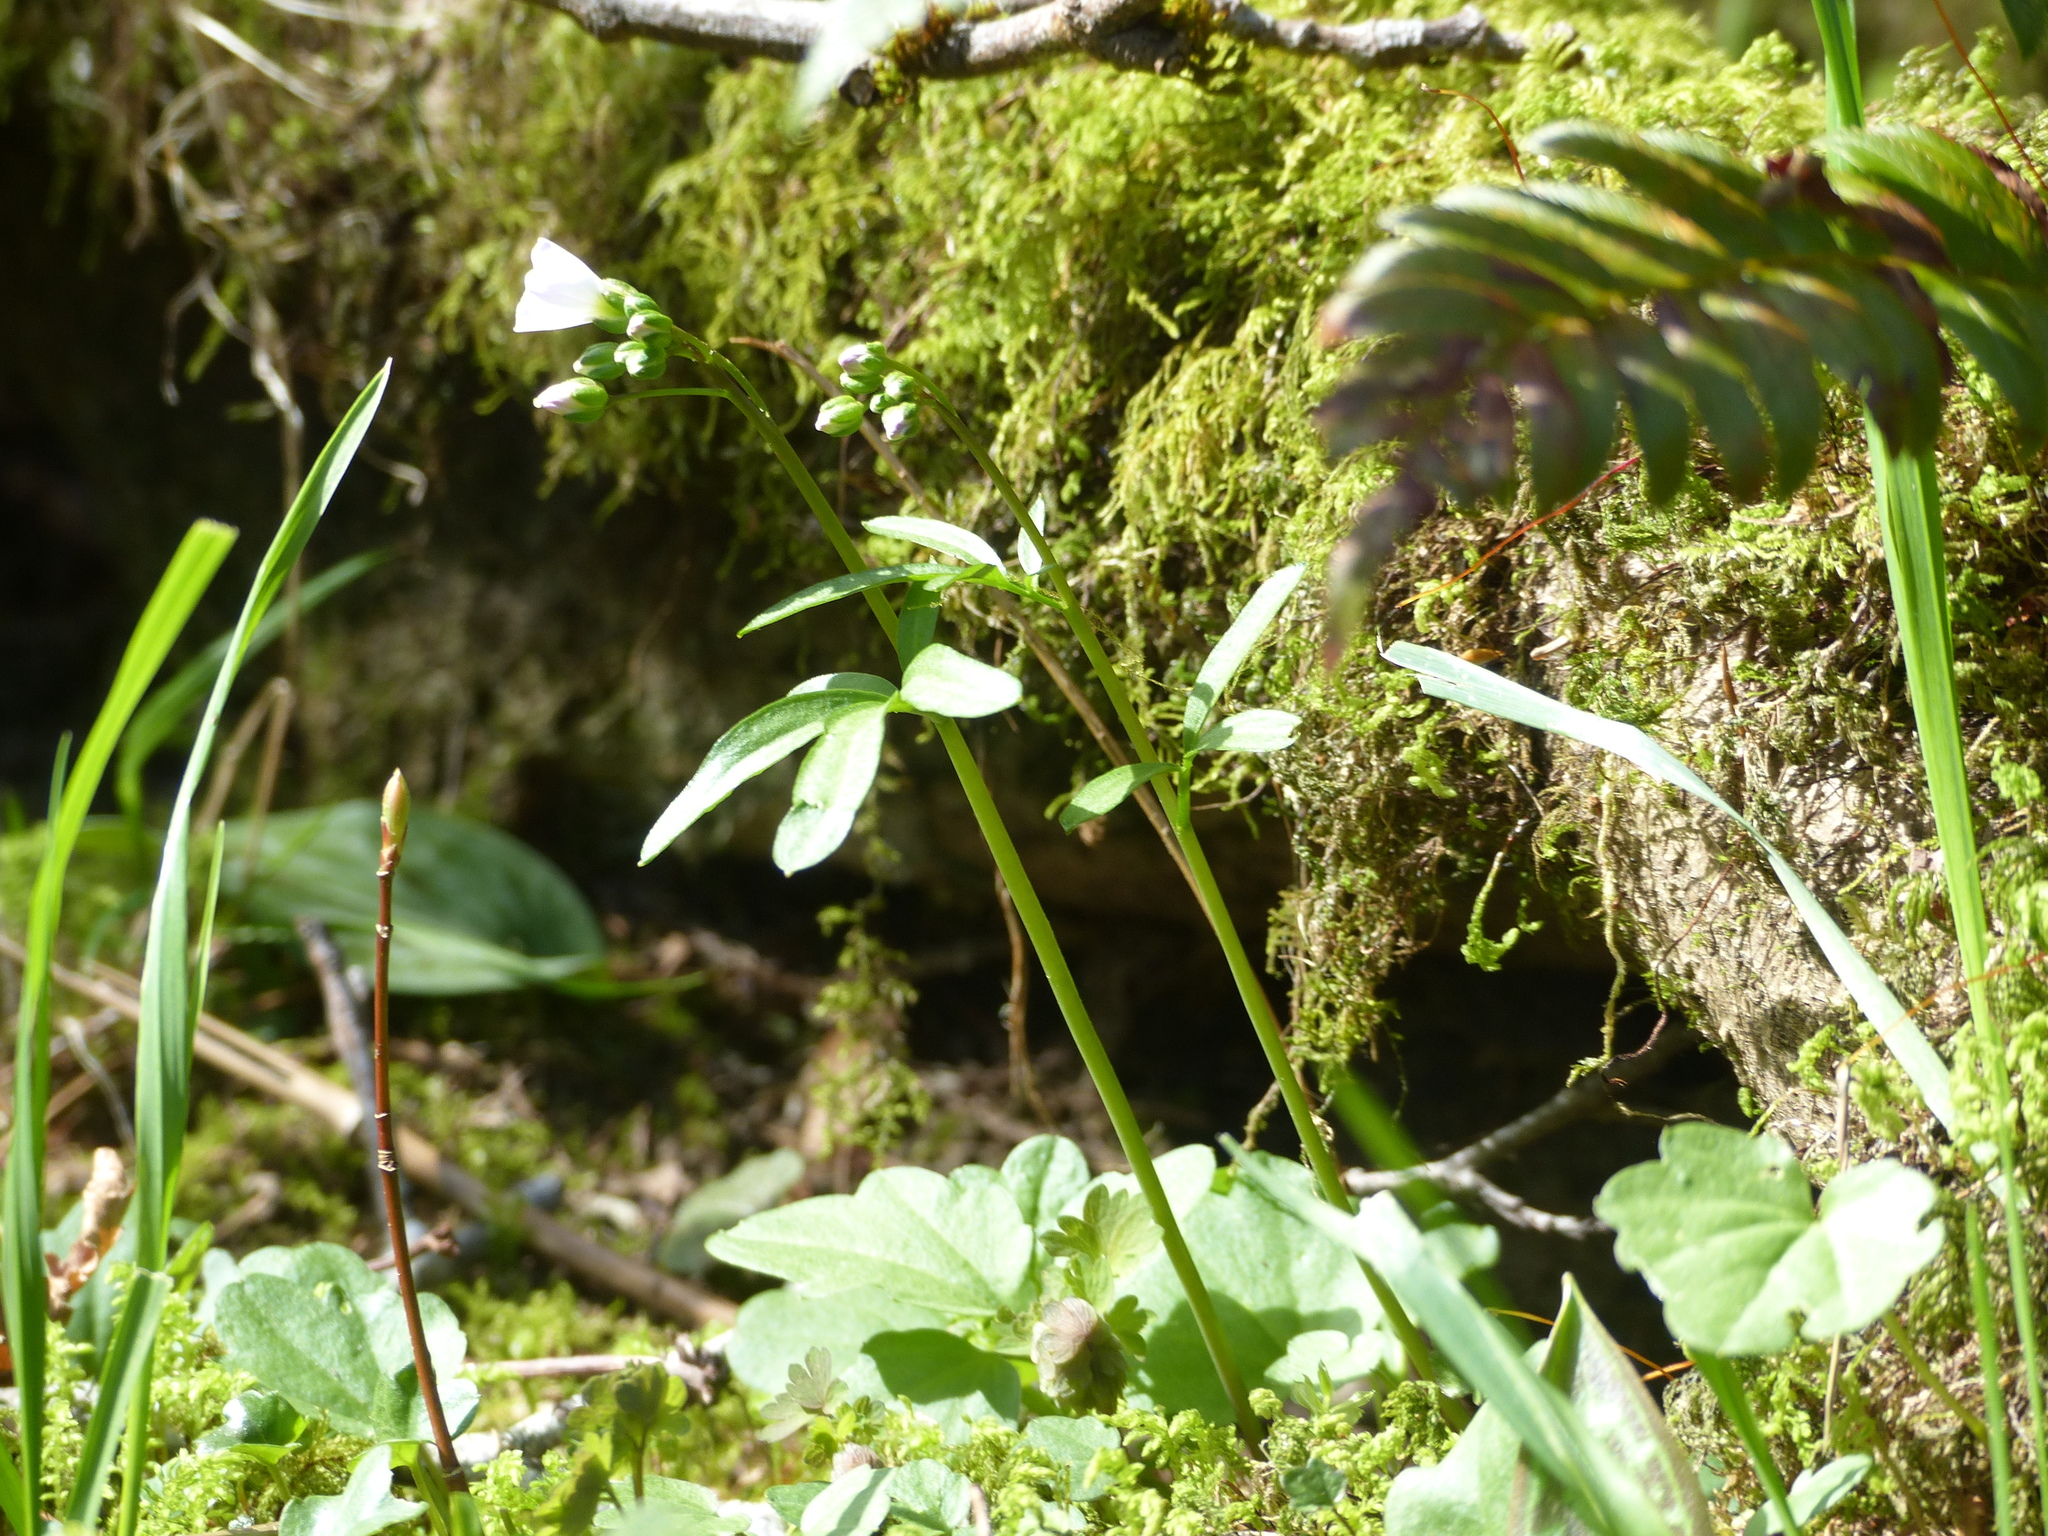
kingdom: Plantae
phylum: Tracheophyta
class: Magnoliopsida
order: Brassicales
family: Brassicaceae
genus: Cardamine
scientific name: Cardamine nuttallii
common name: Nuttall's toothwort
